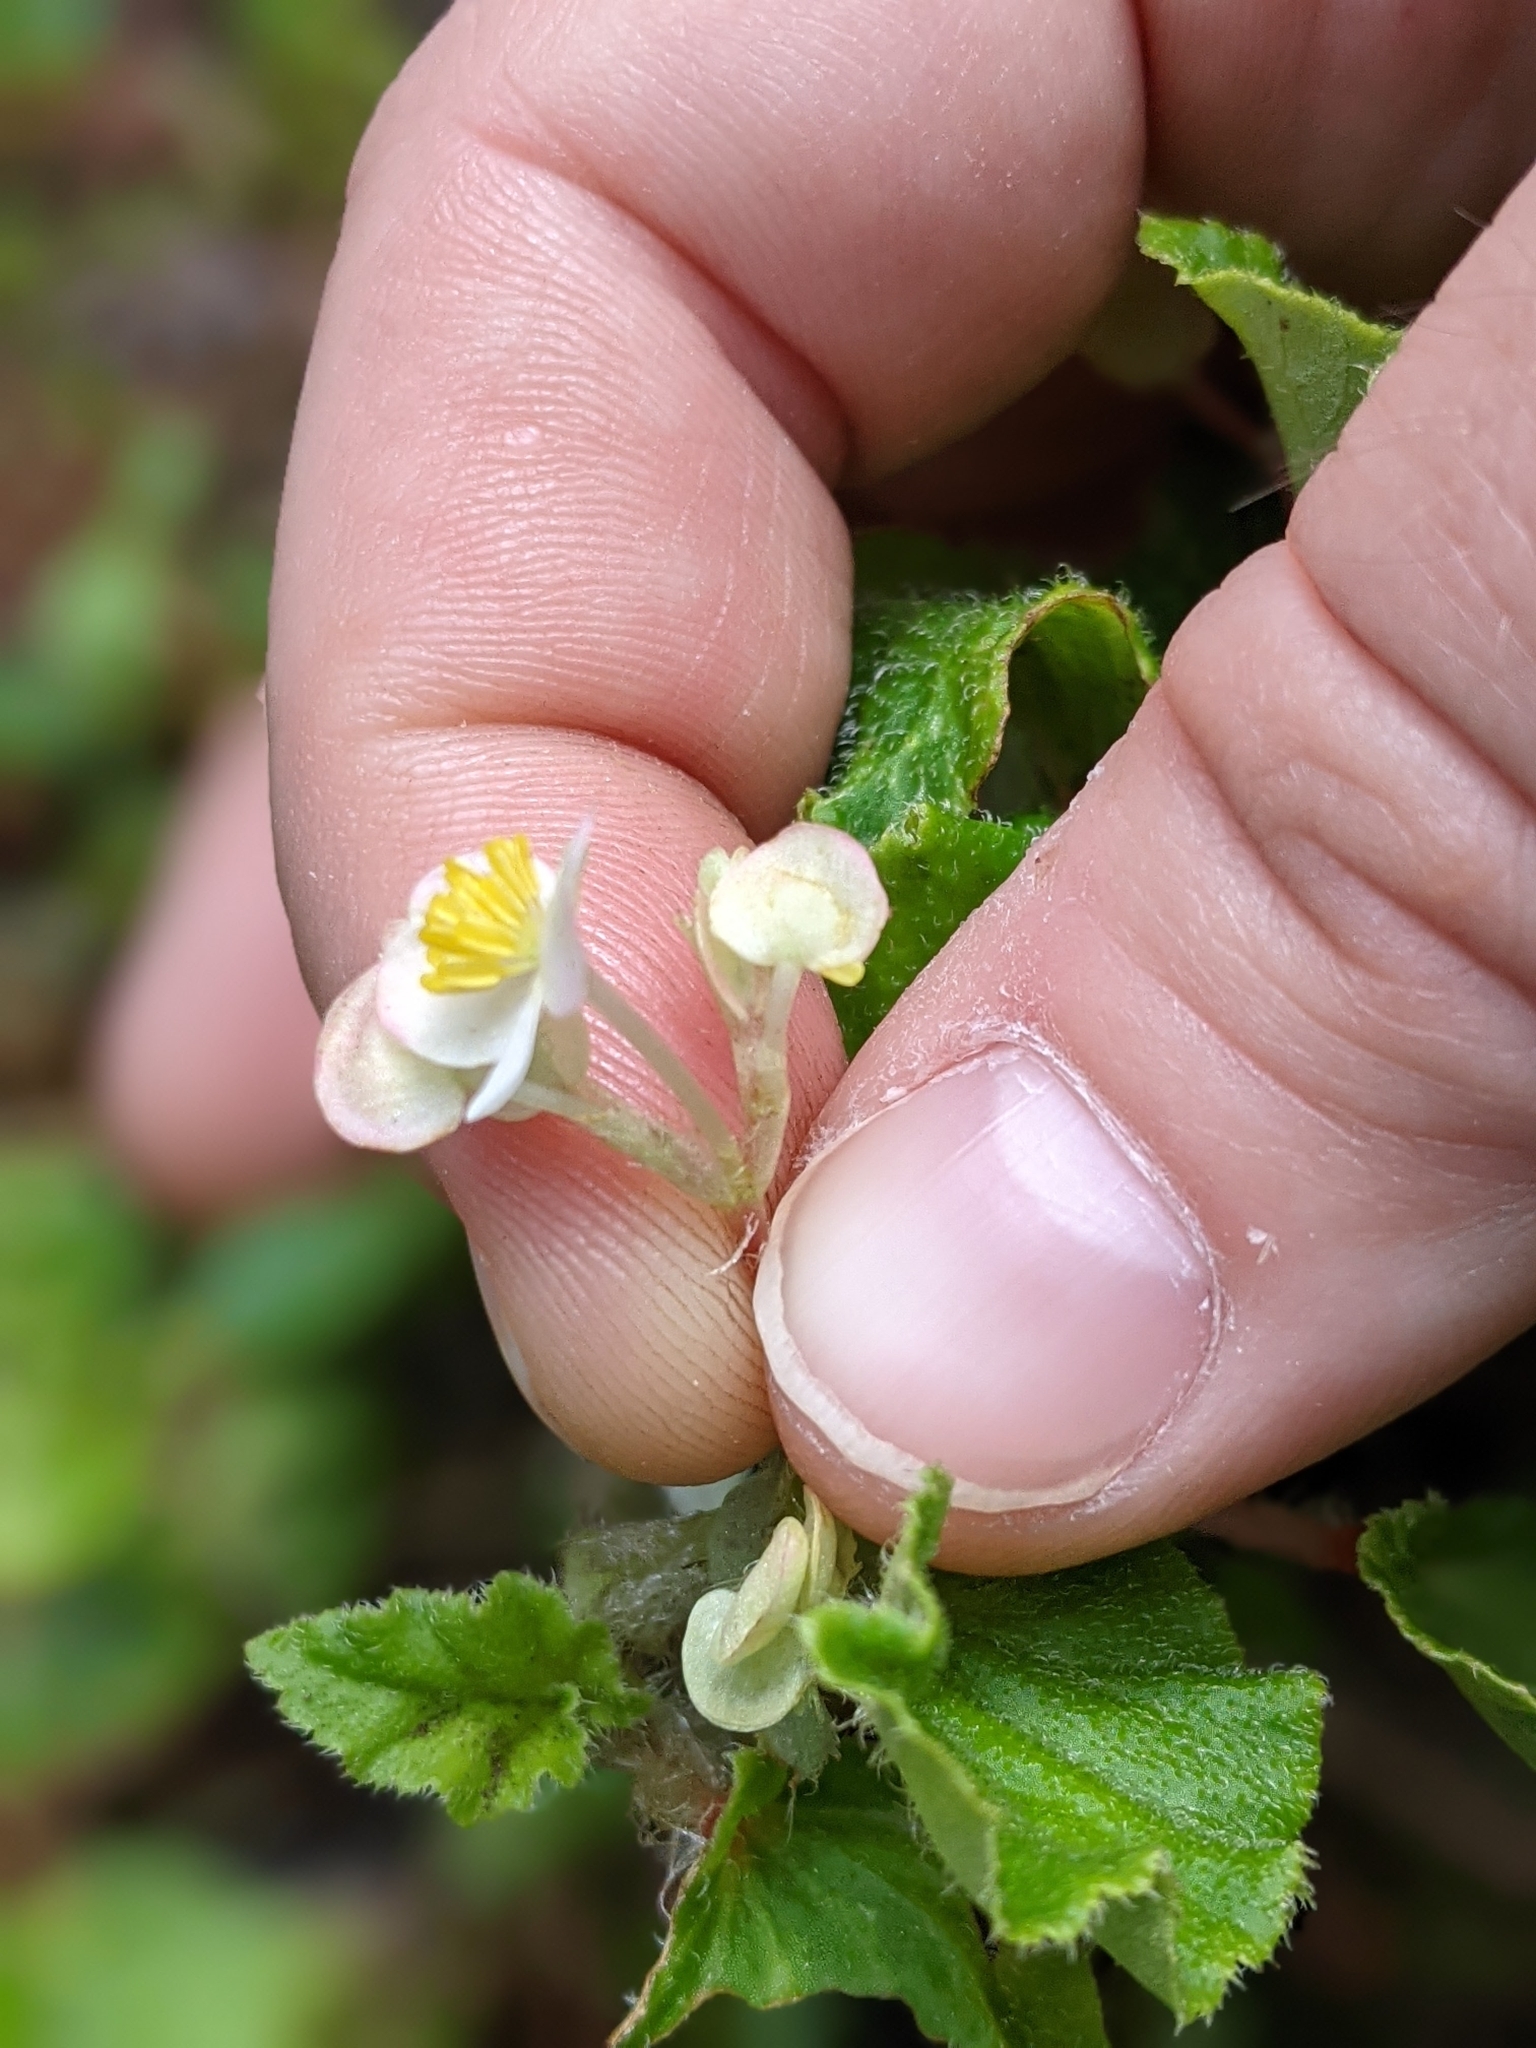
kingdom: Plantae
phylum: Tracheophyta
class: Magnoliopsida
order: Cucurbitales
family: Begoniaceae
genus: Begonia
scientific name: Begonia hirtella
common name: Brazilian begonia
